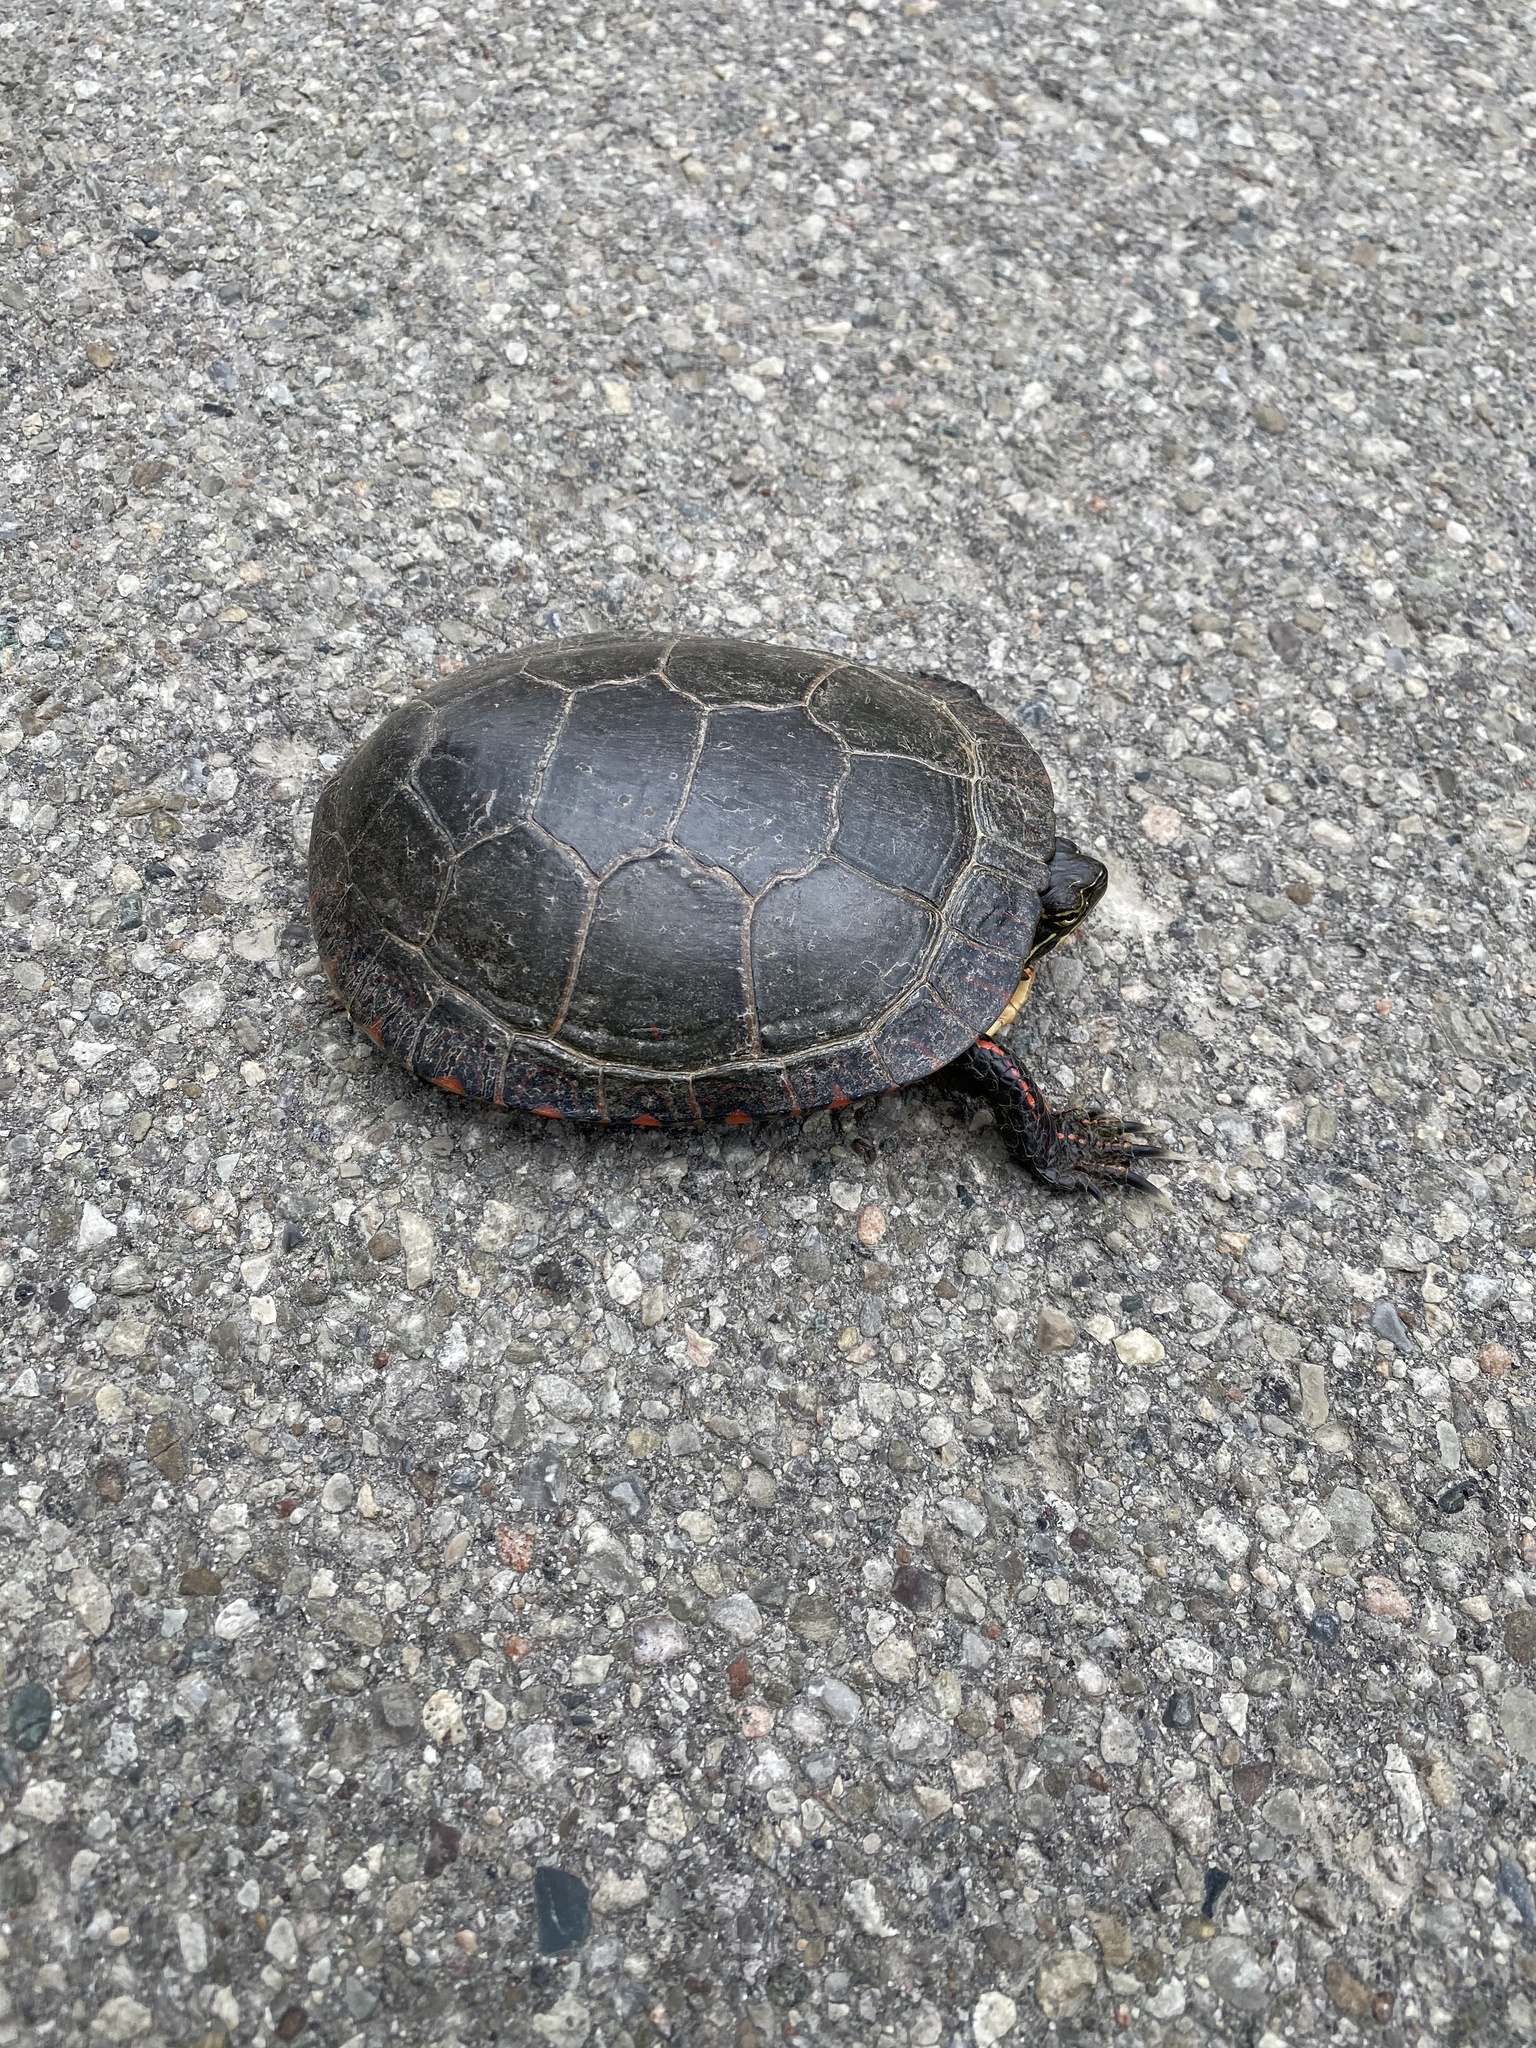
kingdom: Animalia
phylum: Chordata
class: Testudines
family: Emydidae
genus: Chrysemys
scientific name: Chrysemys picta
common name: Painted turtle
